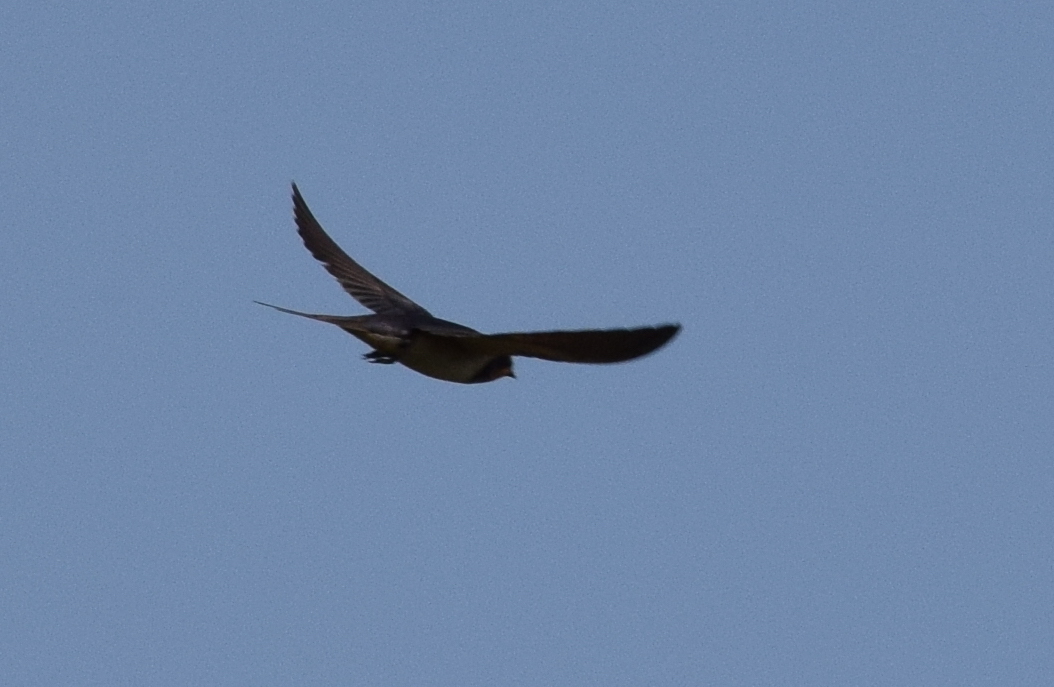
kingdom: Animalia
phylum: Chordata
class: Aves
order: Passeriformes
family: Hirundinidae
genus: Hirundo
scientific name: Hirundo rustica
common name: Barn swallow
